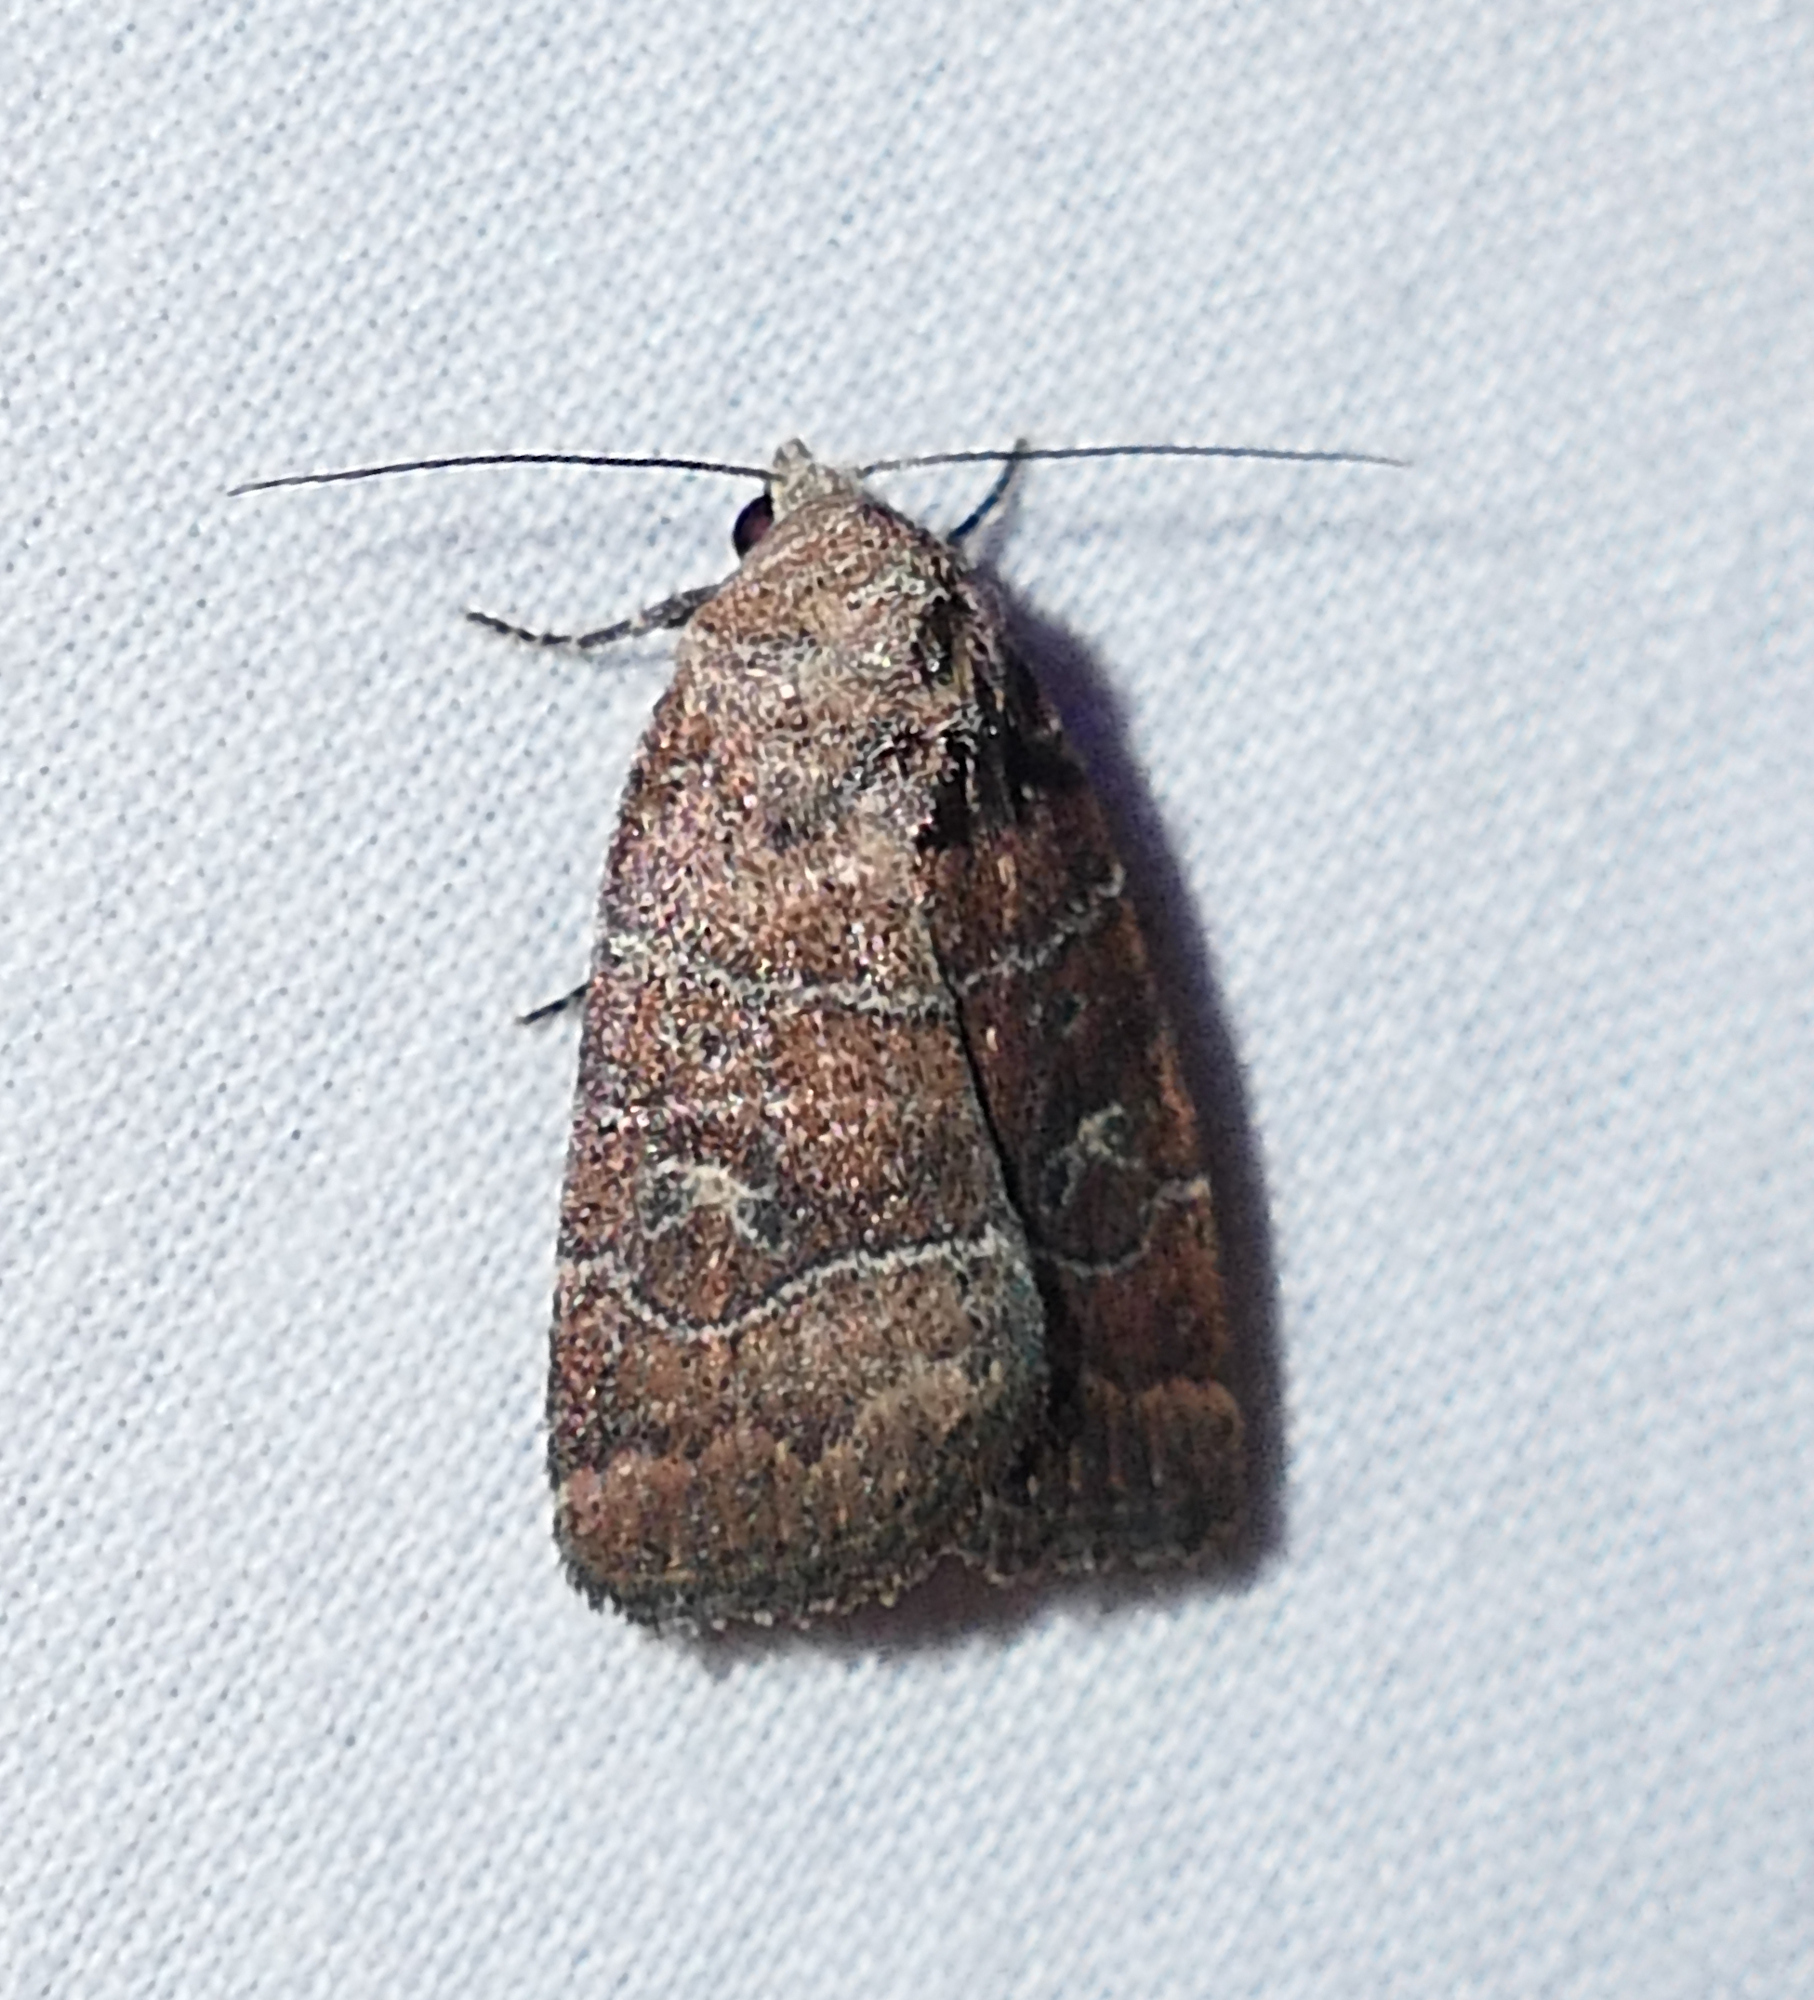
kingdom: Animalia
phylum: Arthropoda
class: Insecta
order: Lepidoptera
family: Noctuidae
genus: Elaphria
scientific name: Elaphria grata
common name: Grateful midget moth
